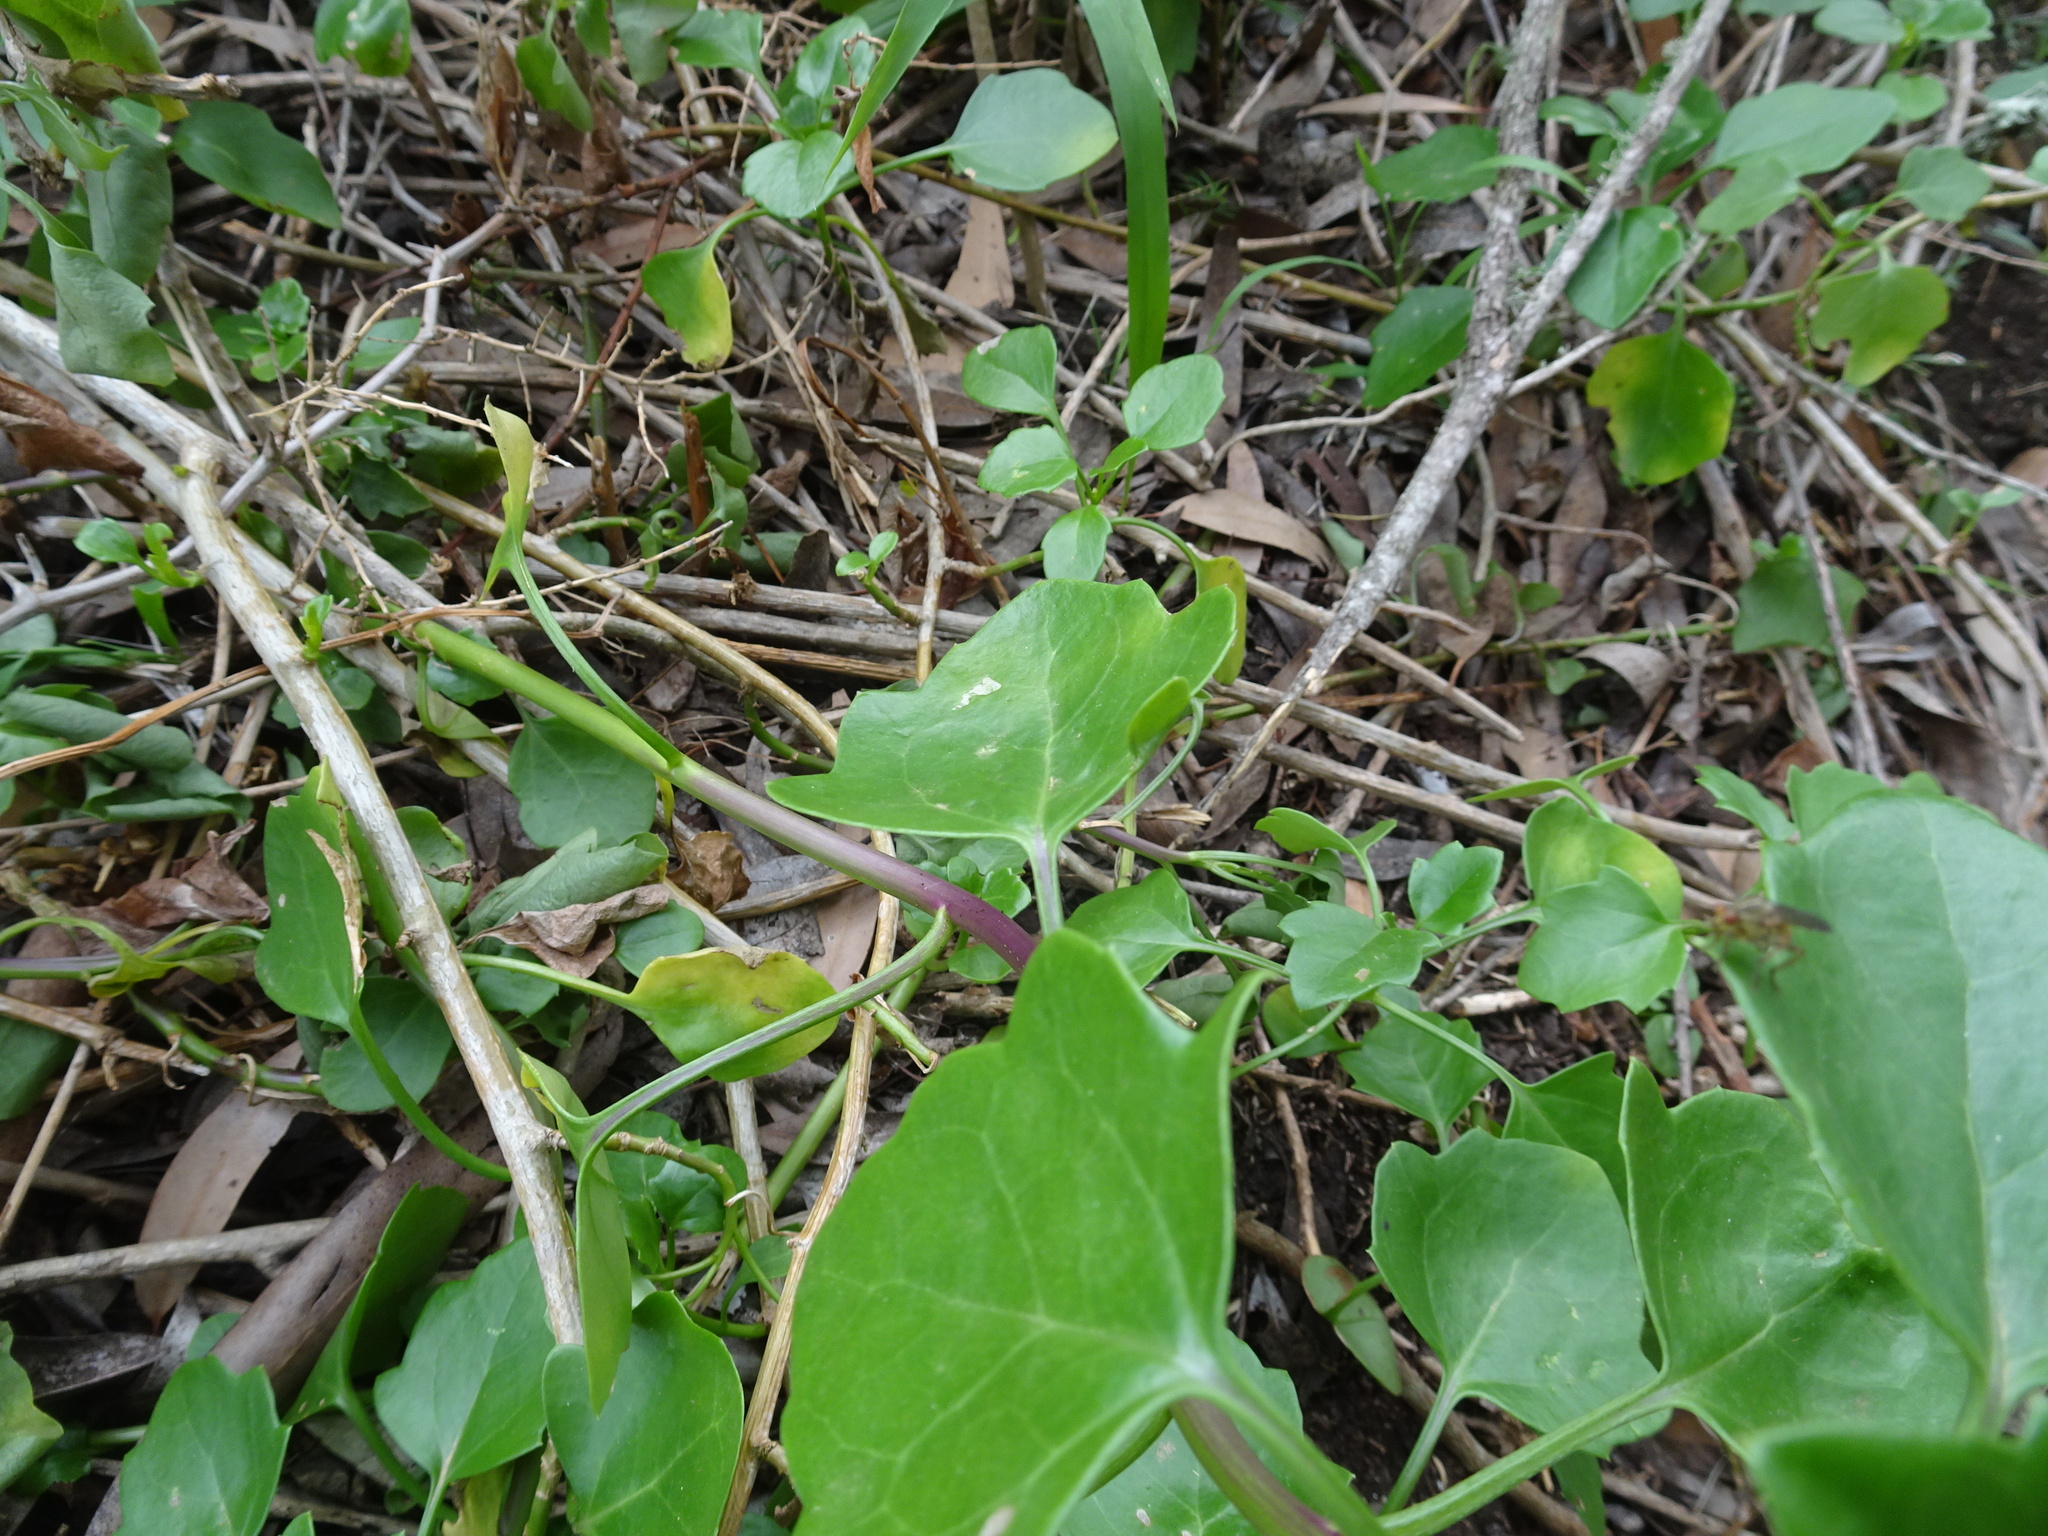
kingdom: Plantae
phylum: Tracheophyta
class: Magnoliopsida
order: Asterales
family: Asteraceae
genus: Senecio
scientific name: Senecio angulatus
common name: Climbing groundsel
